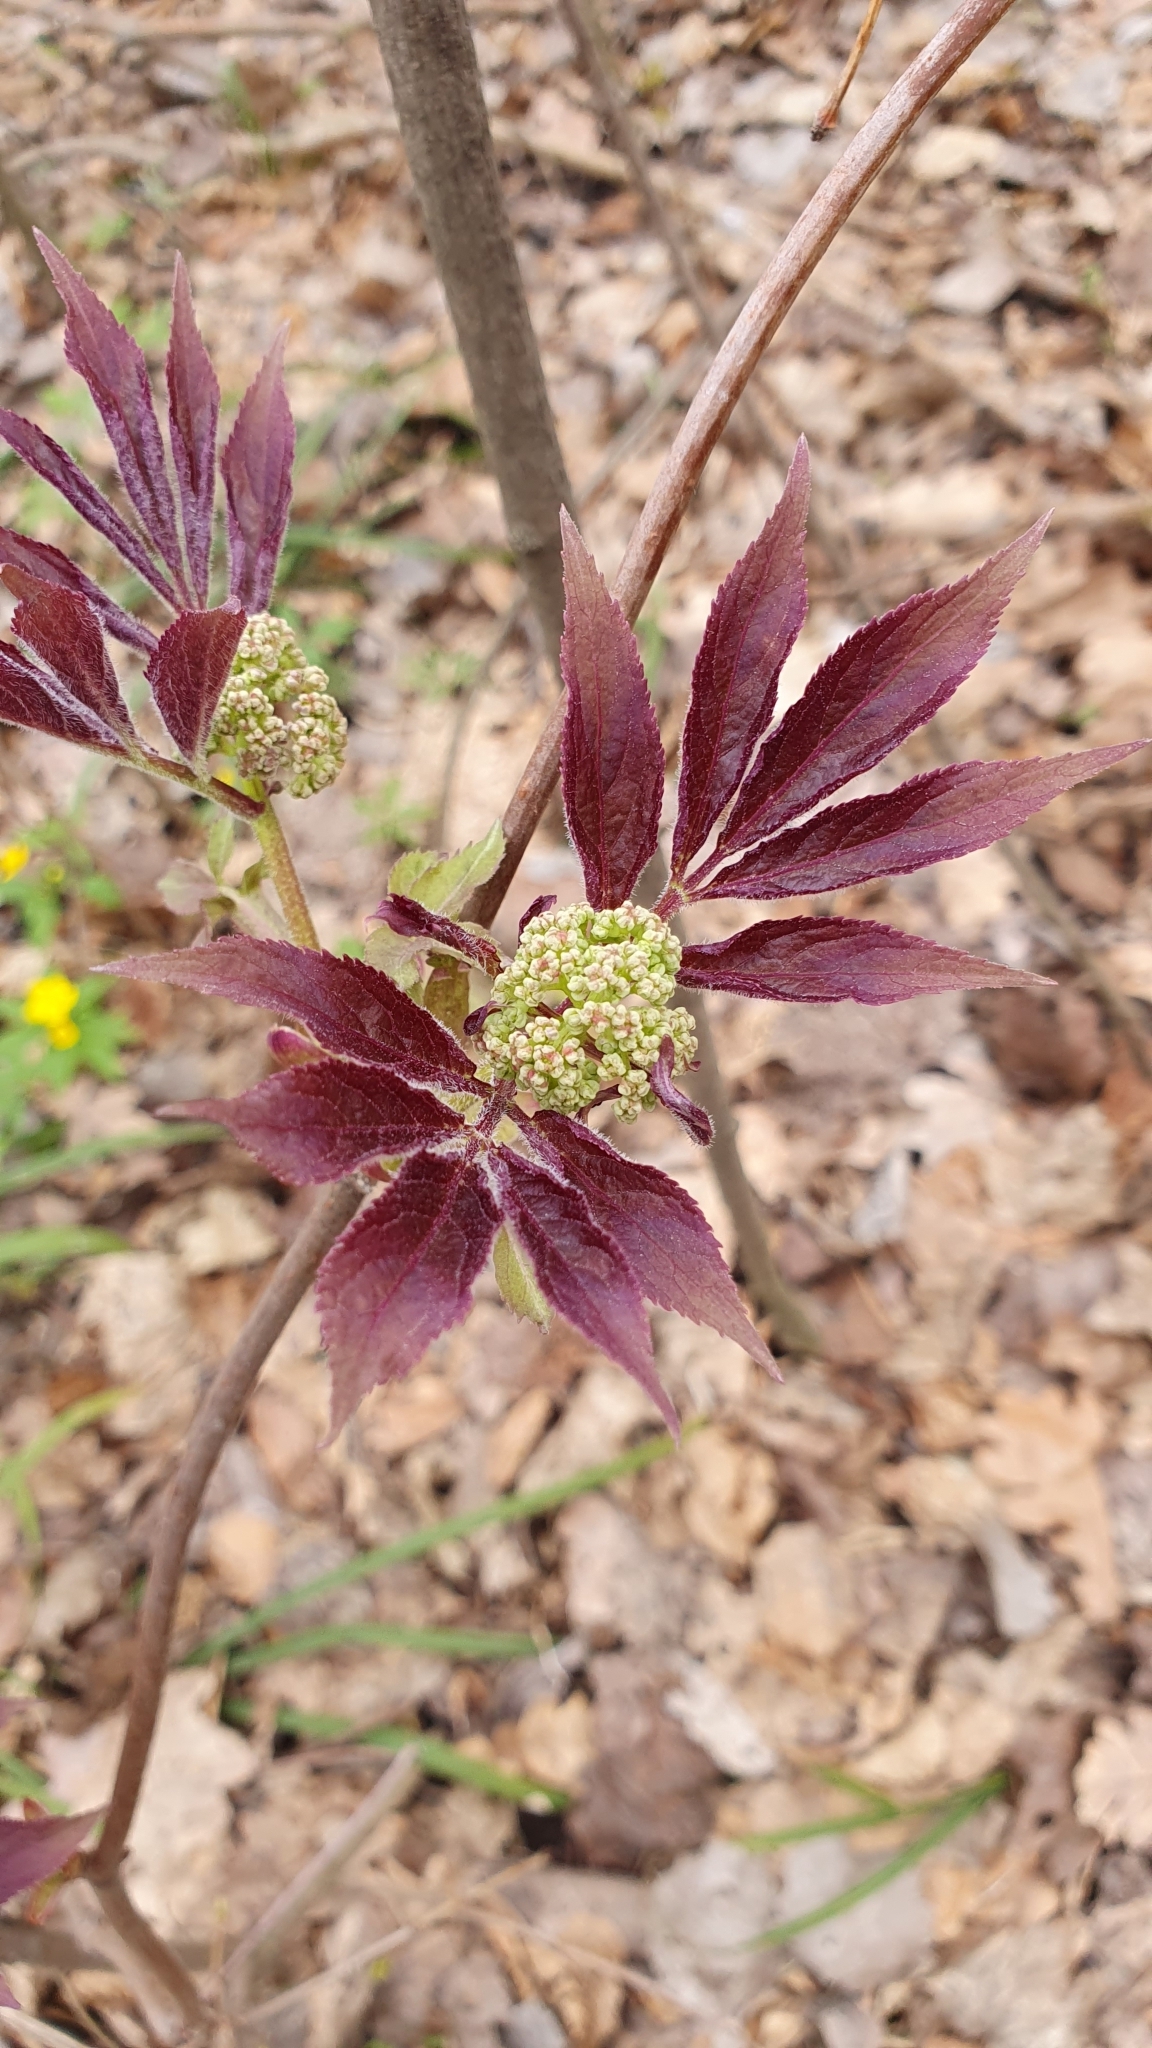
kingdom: Plantae
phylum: Tracheophyta
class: Magnoliopsida
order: Dipsacales
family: Viburnaceae
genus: Sambucus
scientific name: Sambucus racemosa
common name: Red-berried elder
